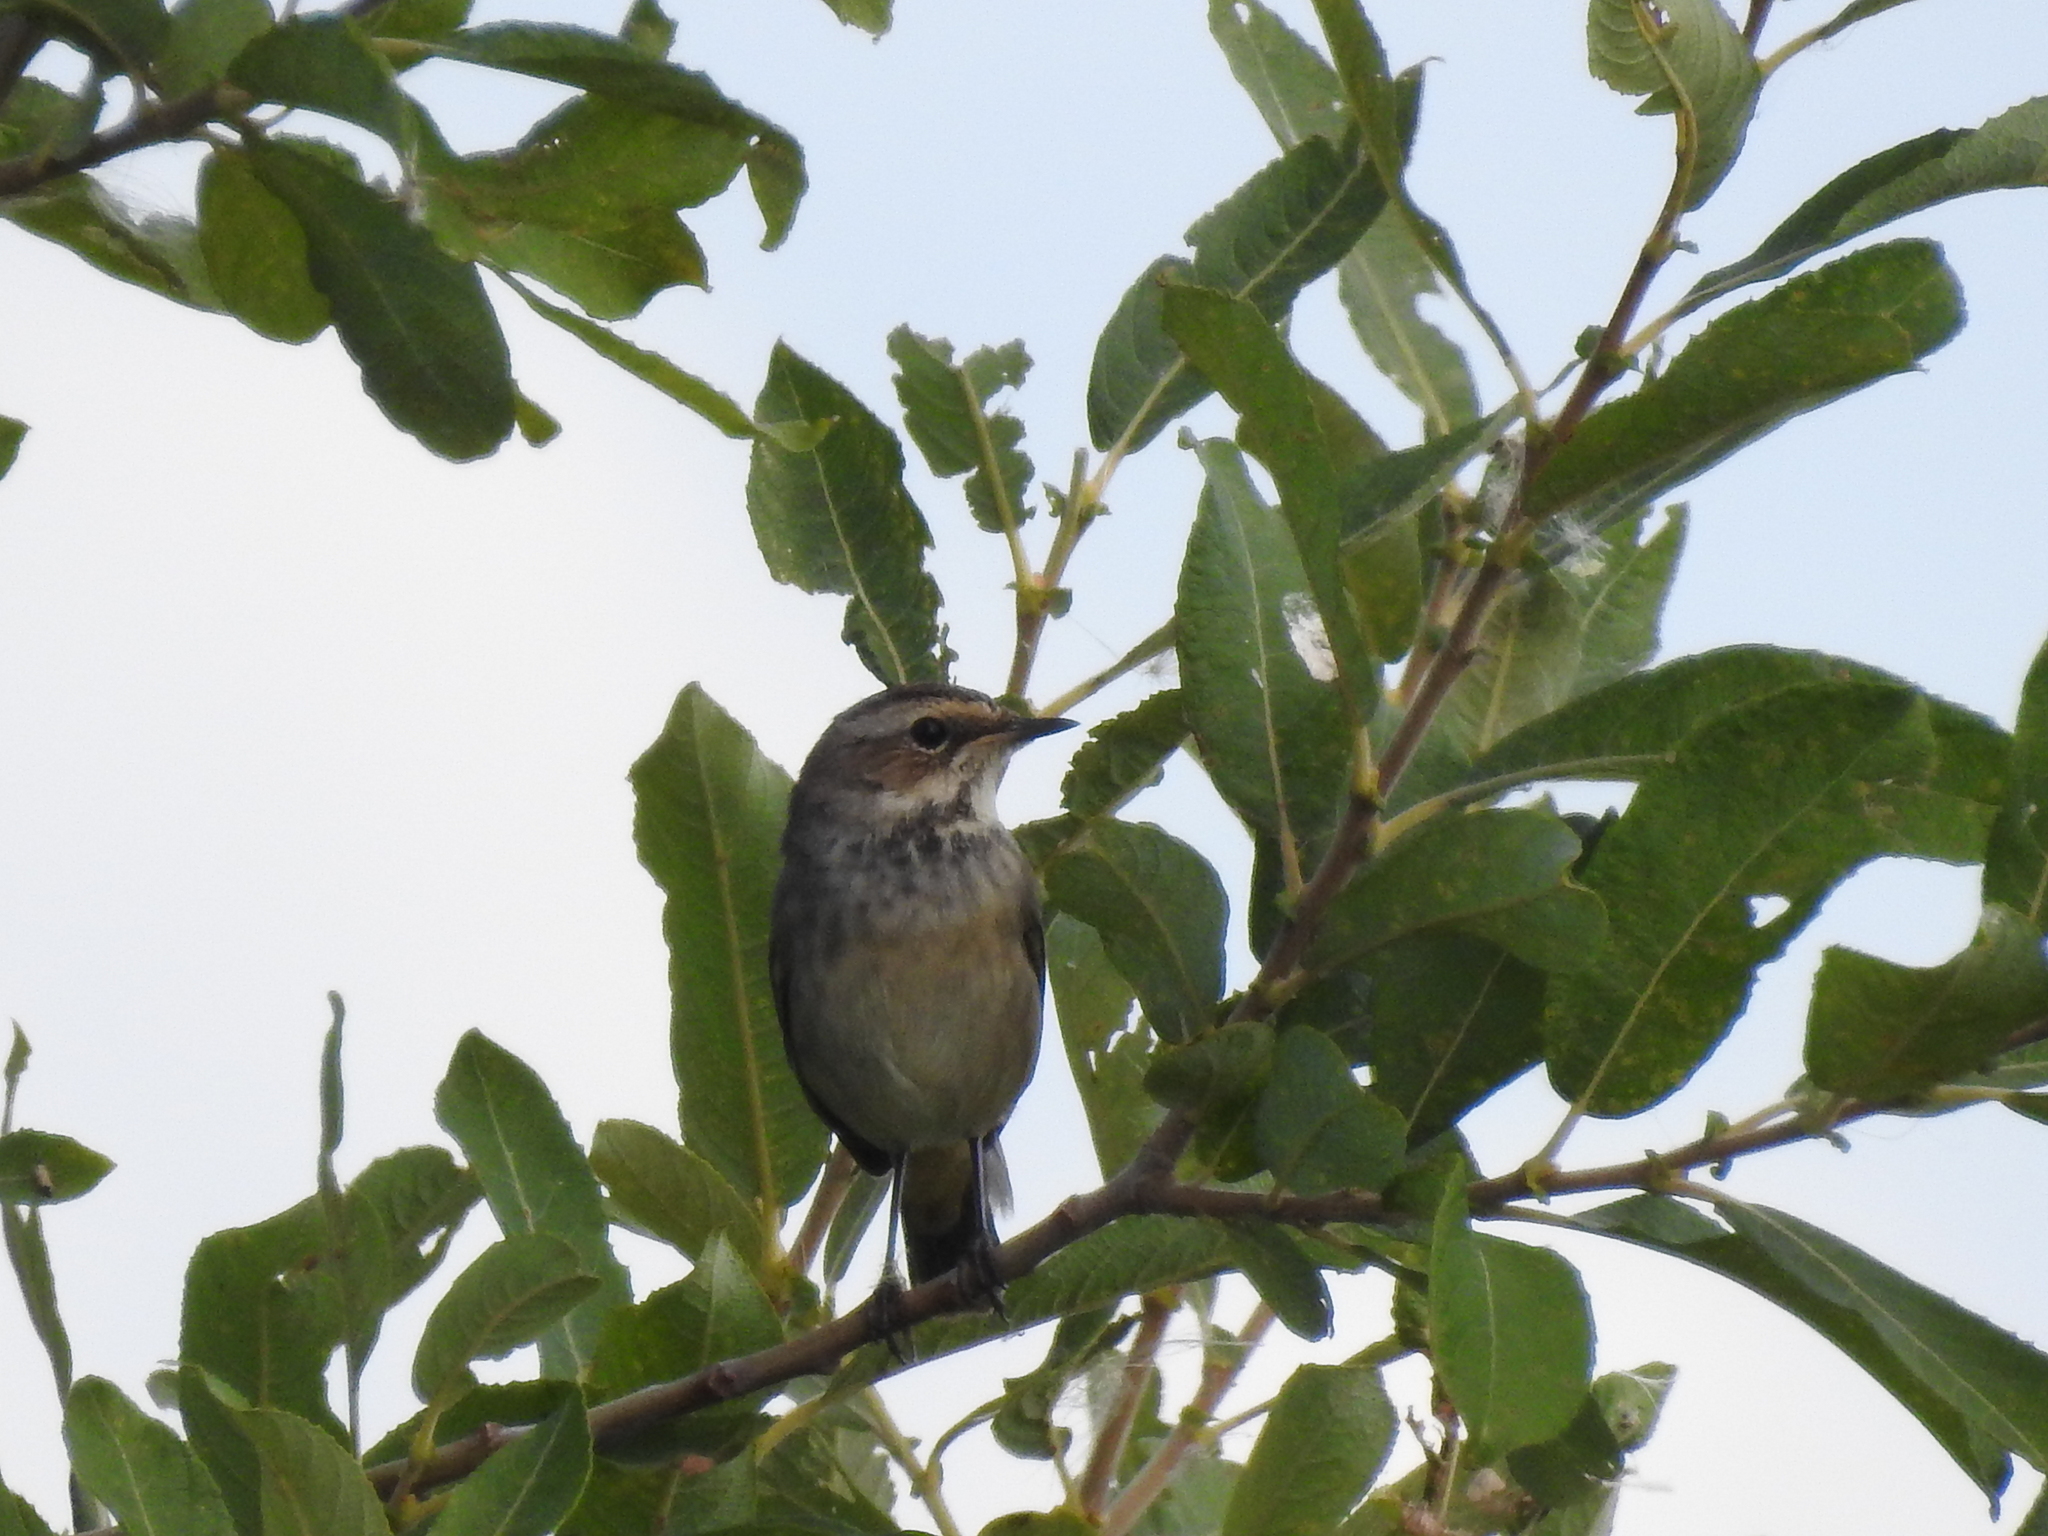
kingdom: Animalia
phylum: Chordata
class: Aves
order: Passeriformes
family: Muscicapidae
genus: Luscinia
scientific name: Luscinia svecica
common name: Bluethroat
